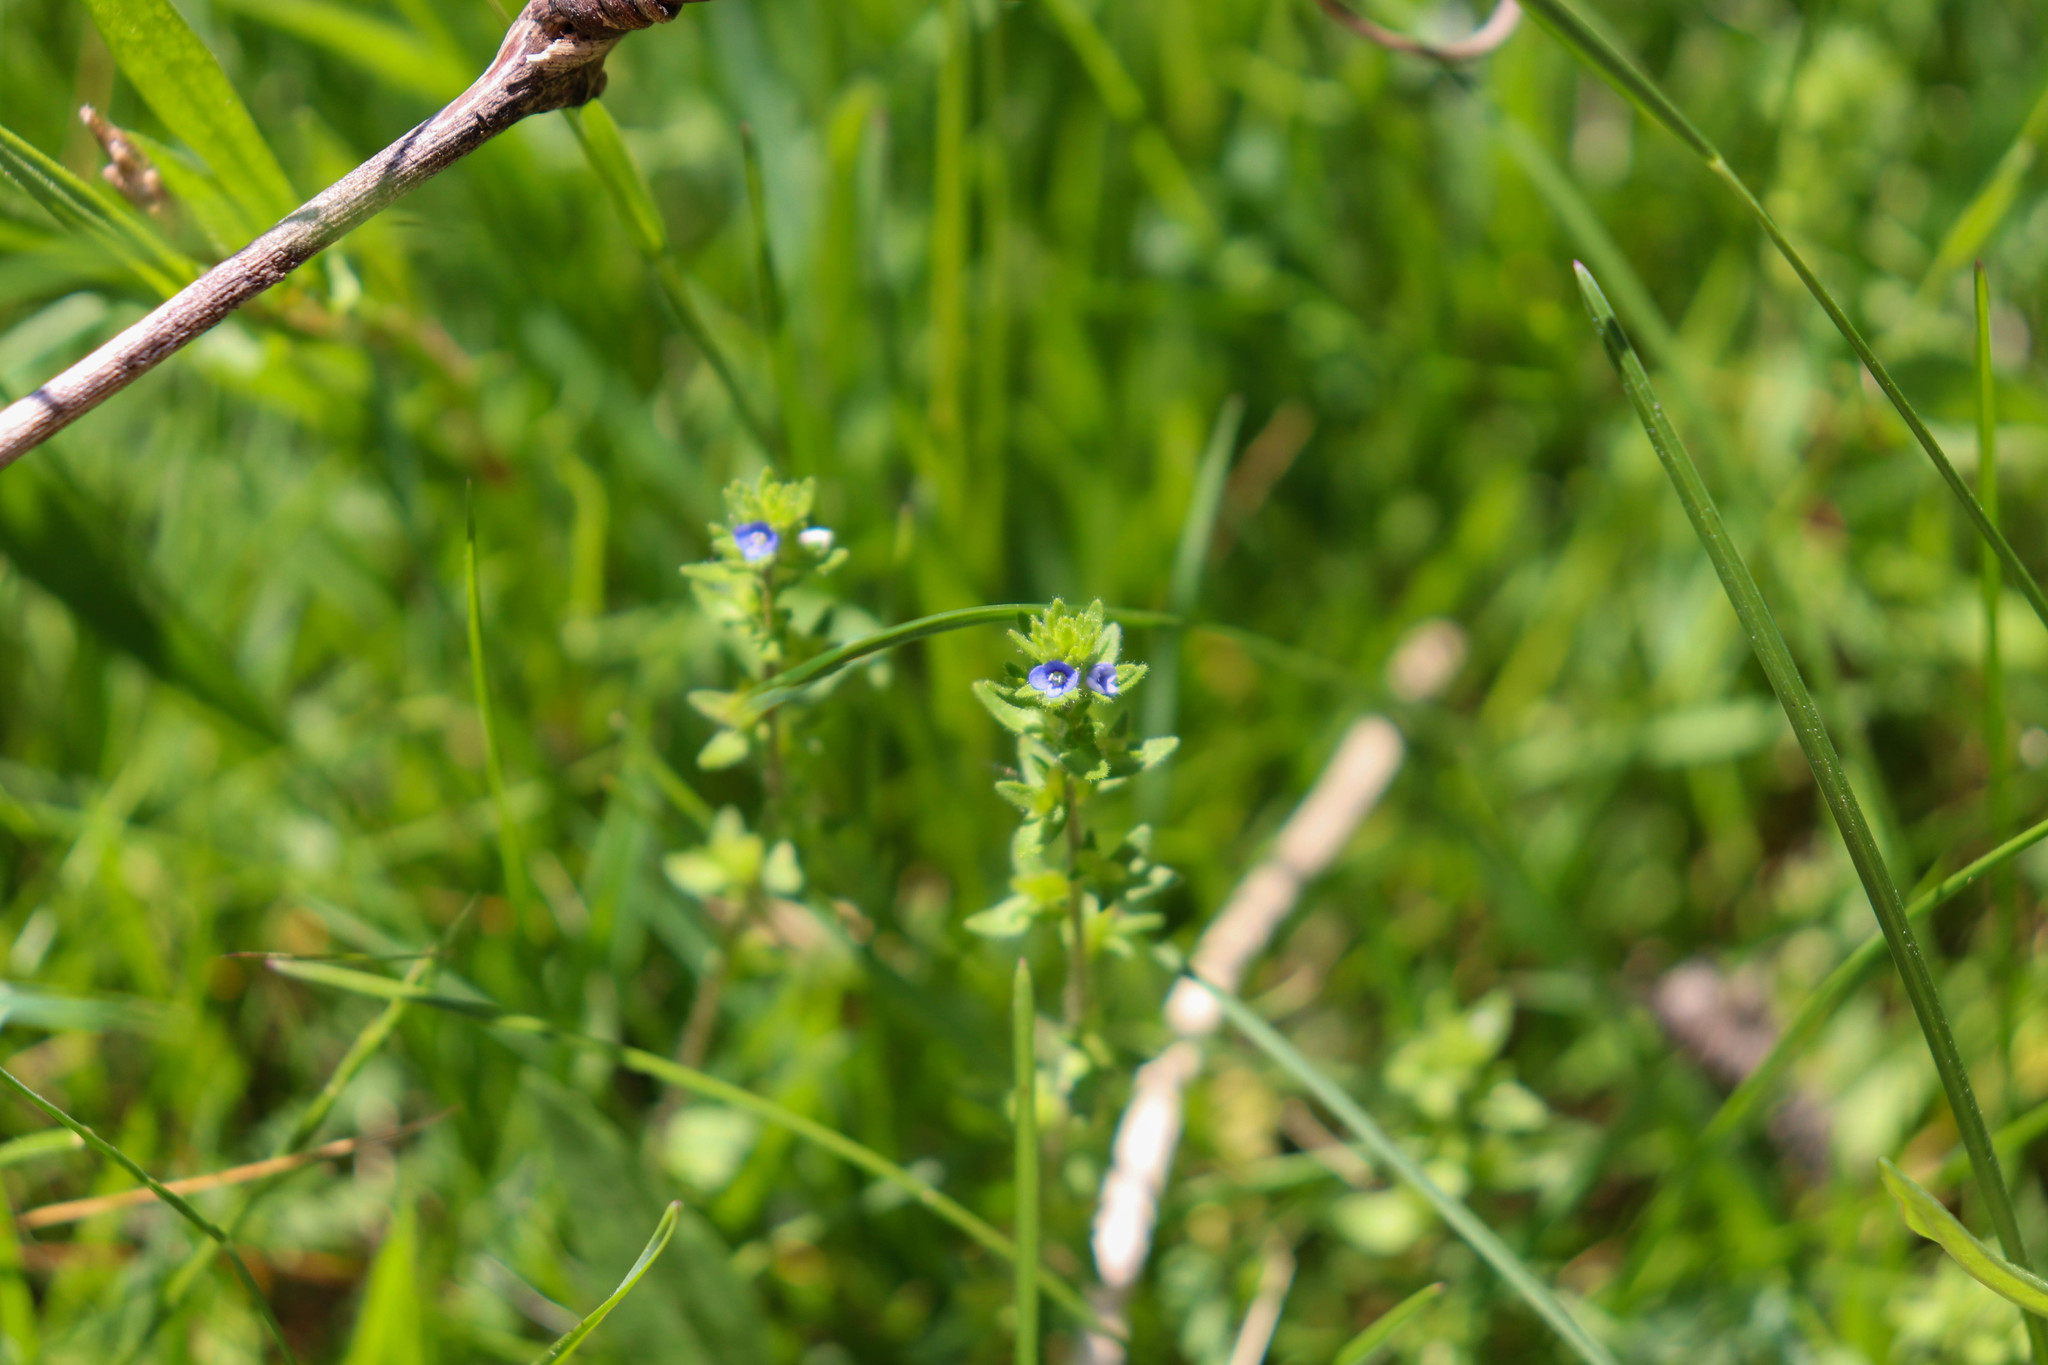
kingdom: Plantae
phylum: Tracheophyta
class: Magnoliopsida
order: Lamiales
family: Plantaginaceae
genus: Veronica
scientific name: Veronica arvensis
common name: Corn speedwell
